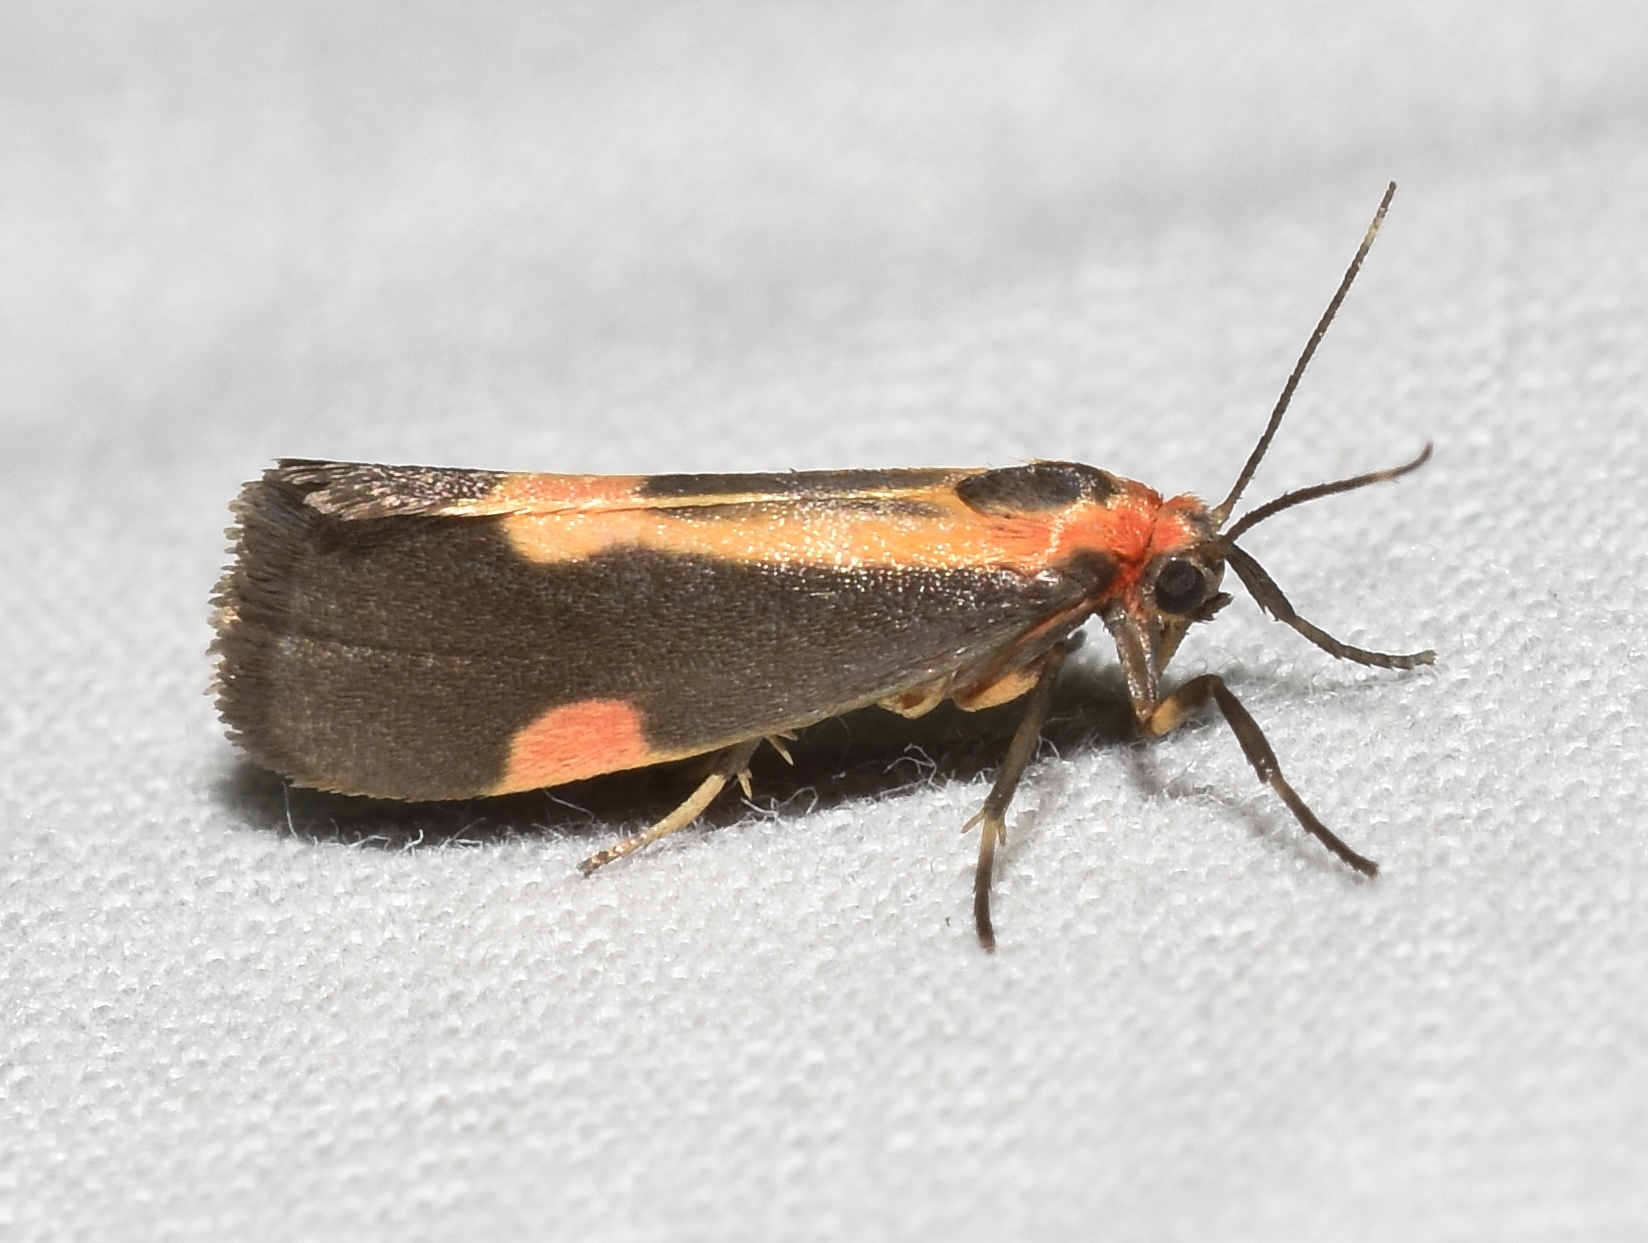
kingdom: Animalia
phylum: Arthropoda
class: Insecta
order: Lepidoptera
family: Erebidae
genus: Cisthene
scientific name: Cisthene packardii
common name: Packard's lichen moth
